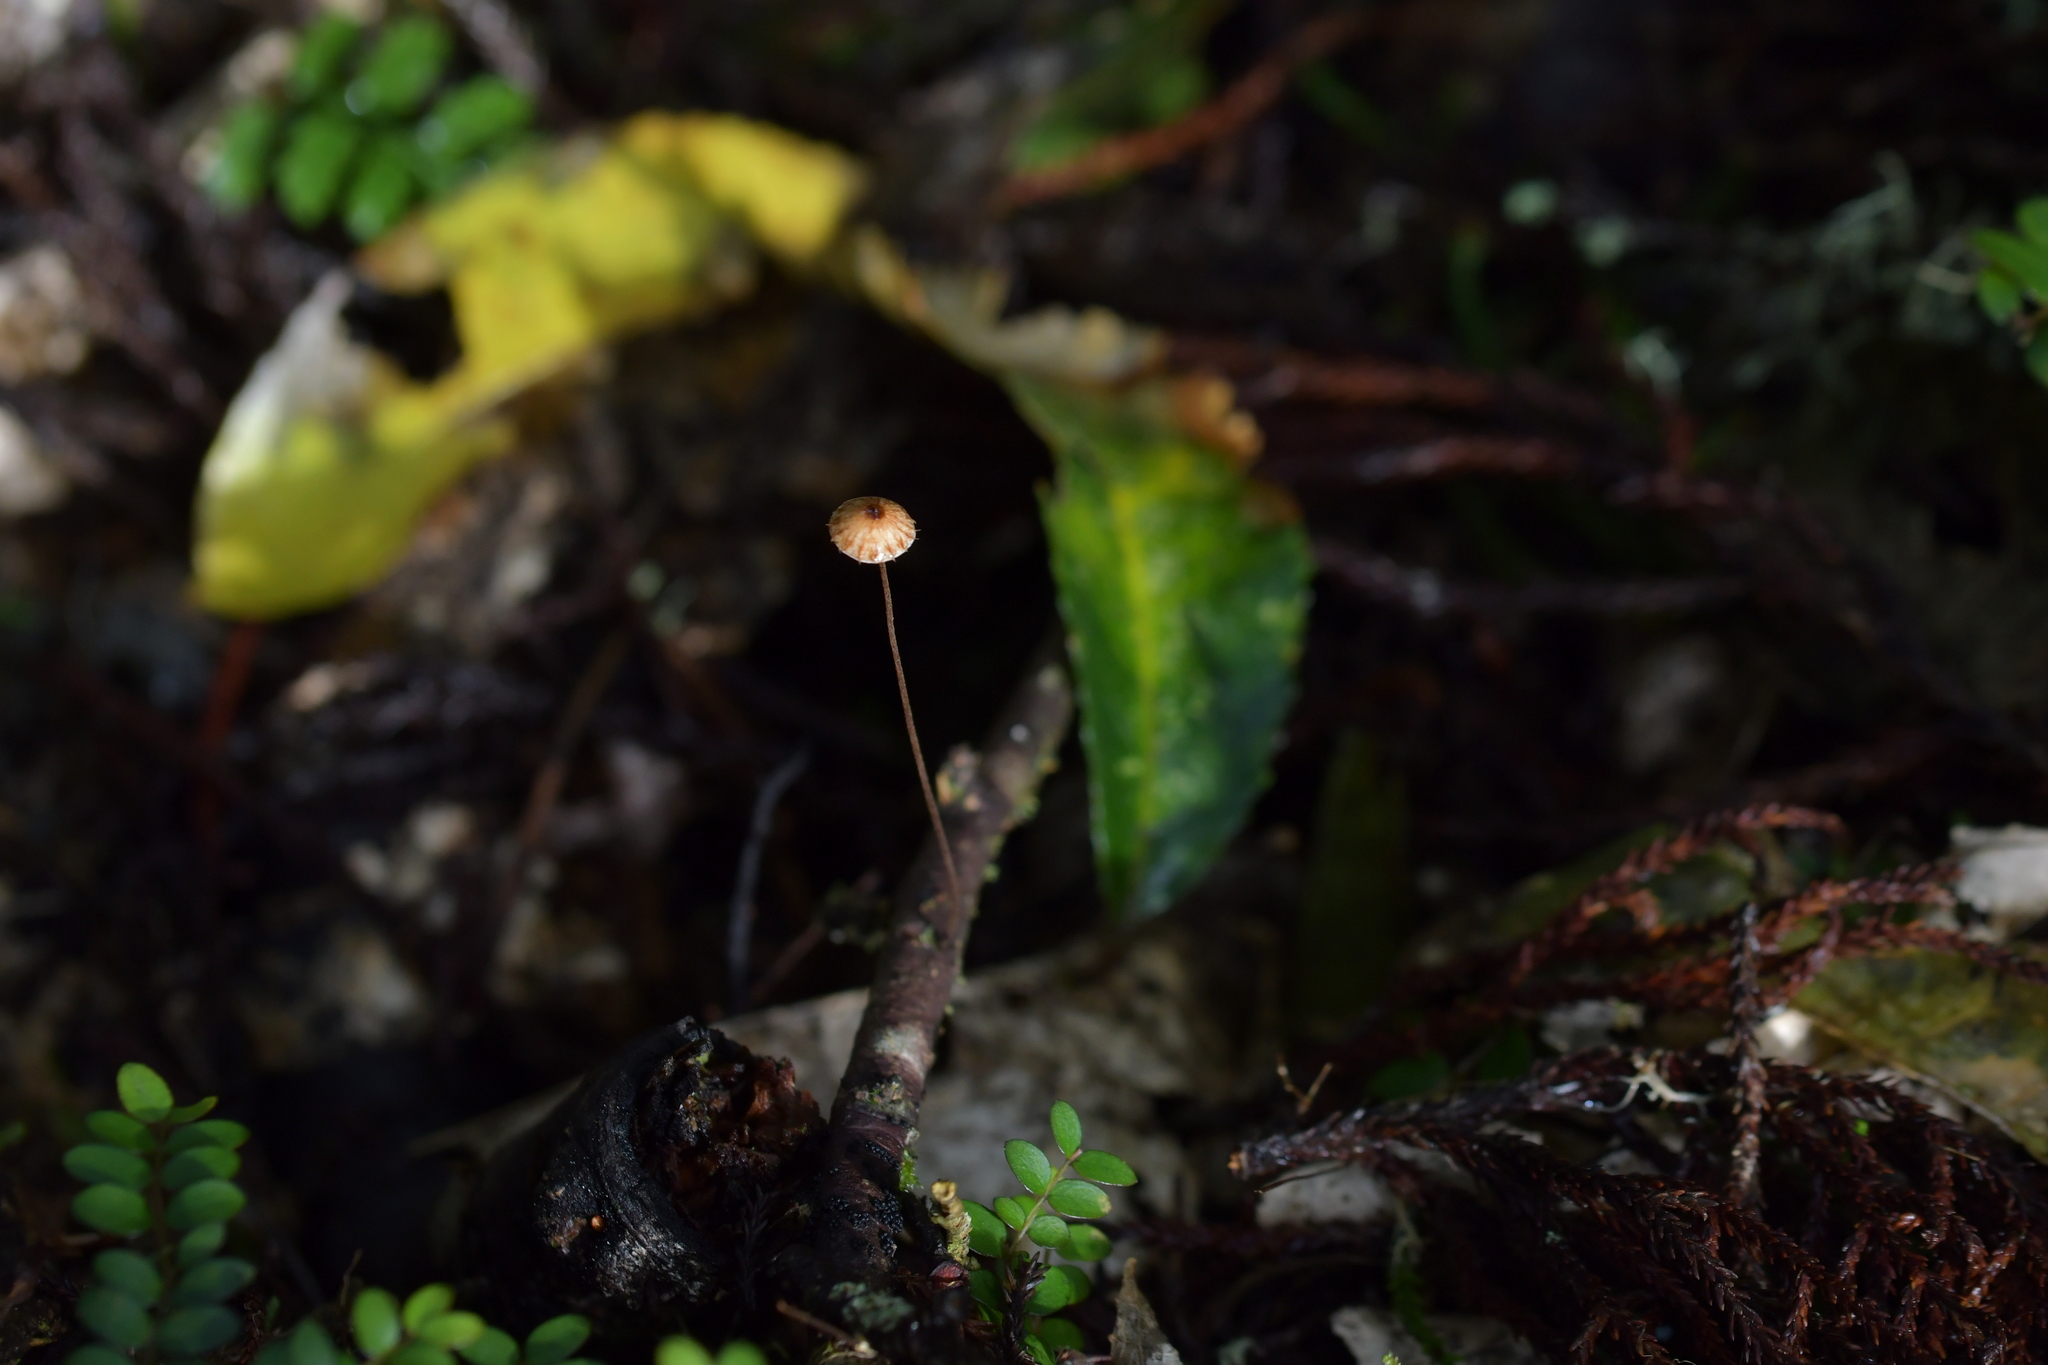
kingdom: Fungi
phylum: Basidiomycota
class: Agaricomycetes
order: Agaricales
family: Marasmiaceae
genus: Crinipellis
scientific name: Crinipellis procera
